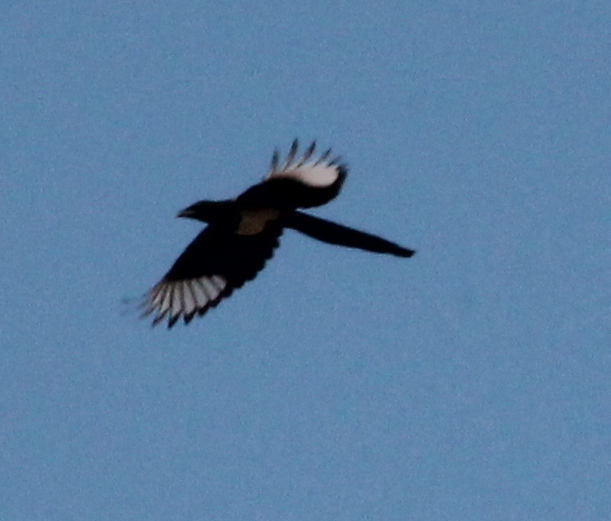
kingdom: Animalia
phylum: Chordata
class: Aves
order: Passeriformes
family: Corvidae
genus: Pica
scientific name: Pica hudsonia
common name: Black-billed magpie
